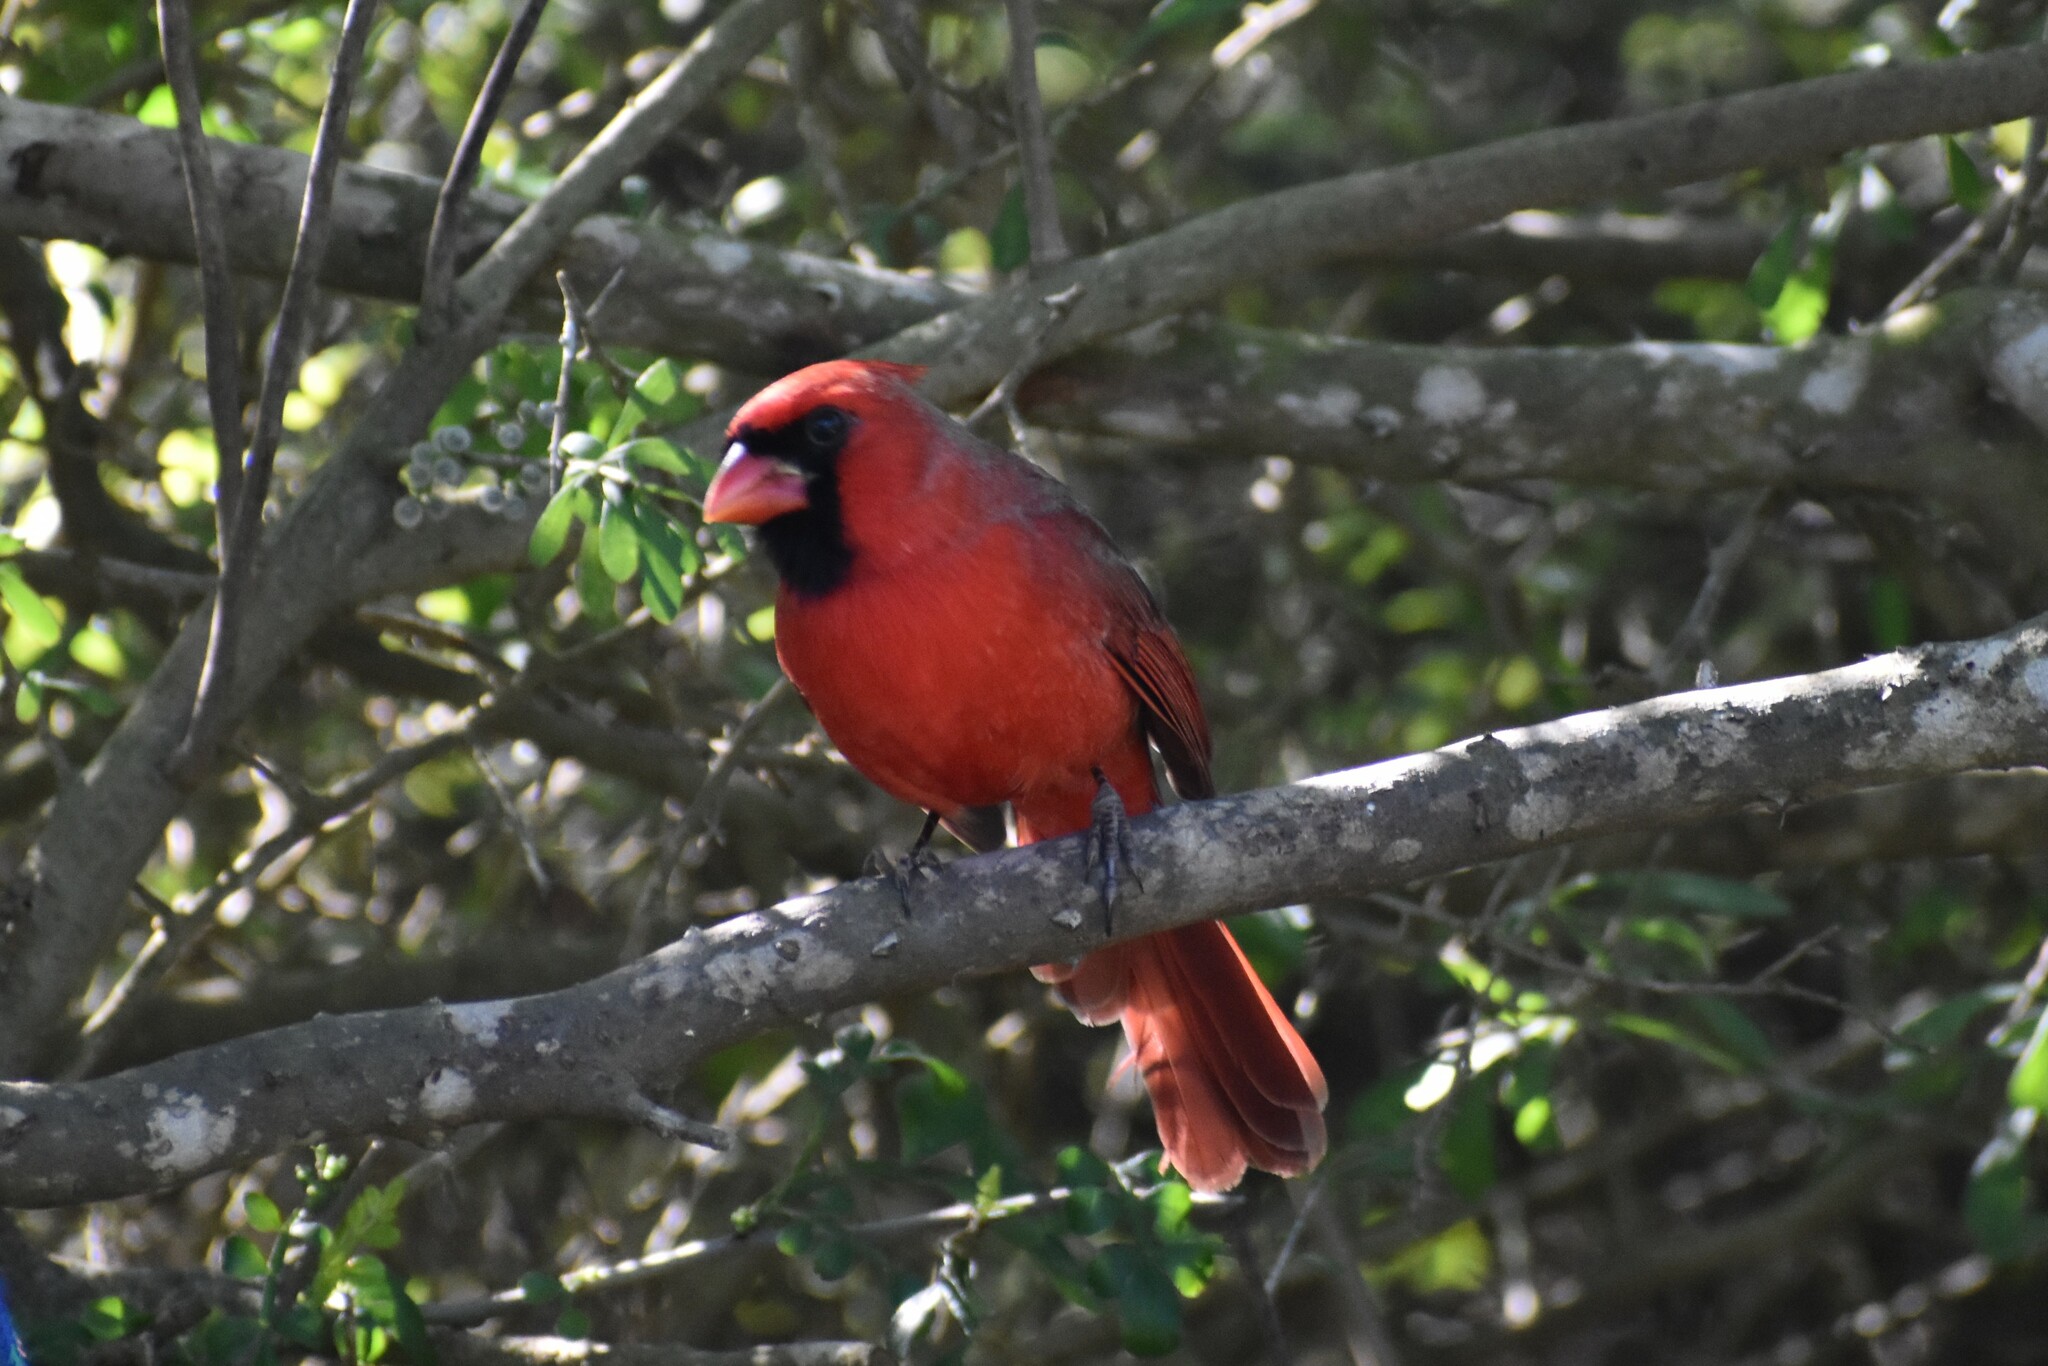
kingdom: Animalia
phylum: Chordata
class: Aves
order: Passeriformes
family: Cardinalidae
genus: Cardinalis
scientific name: Cardinalis cardinalis
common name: Northern cardinal
